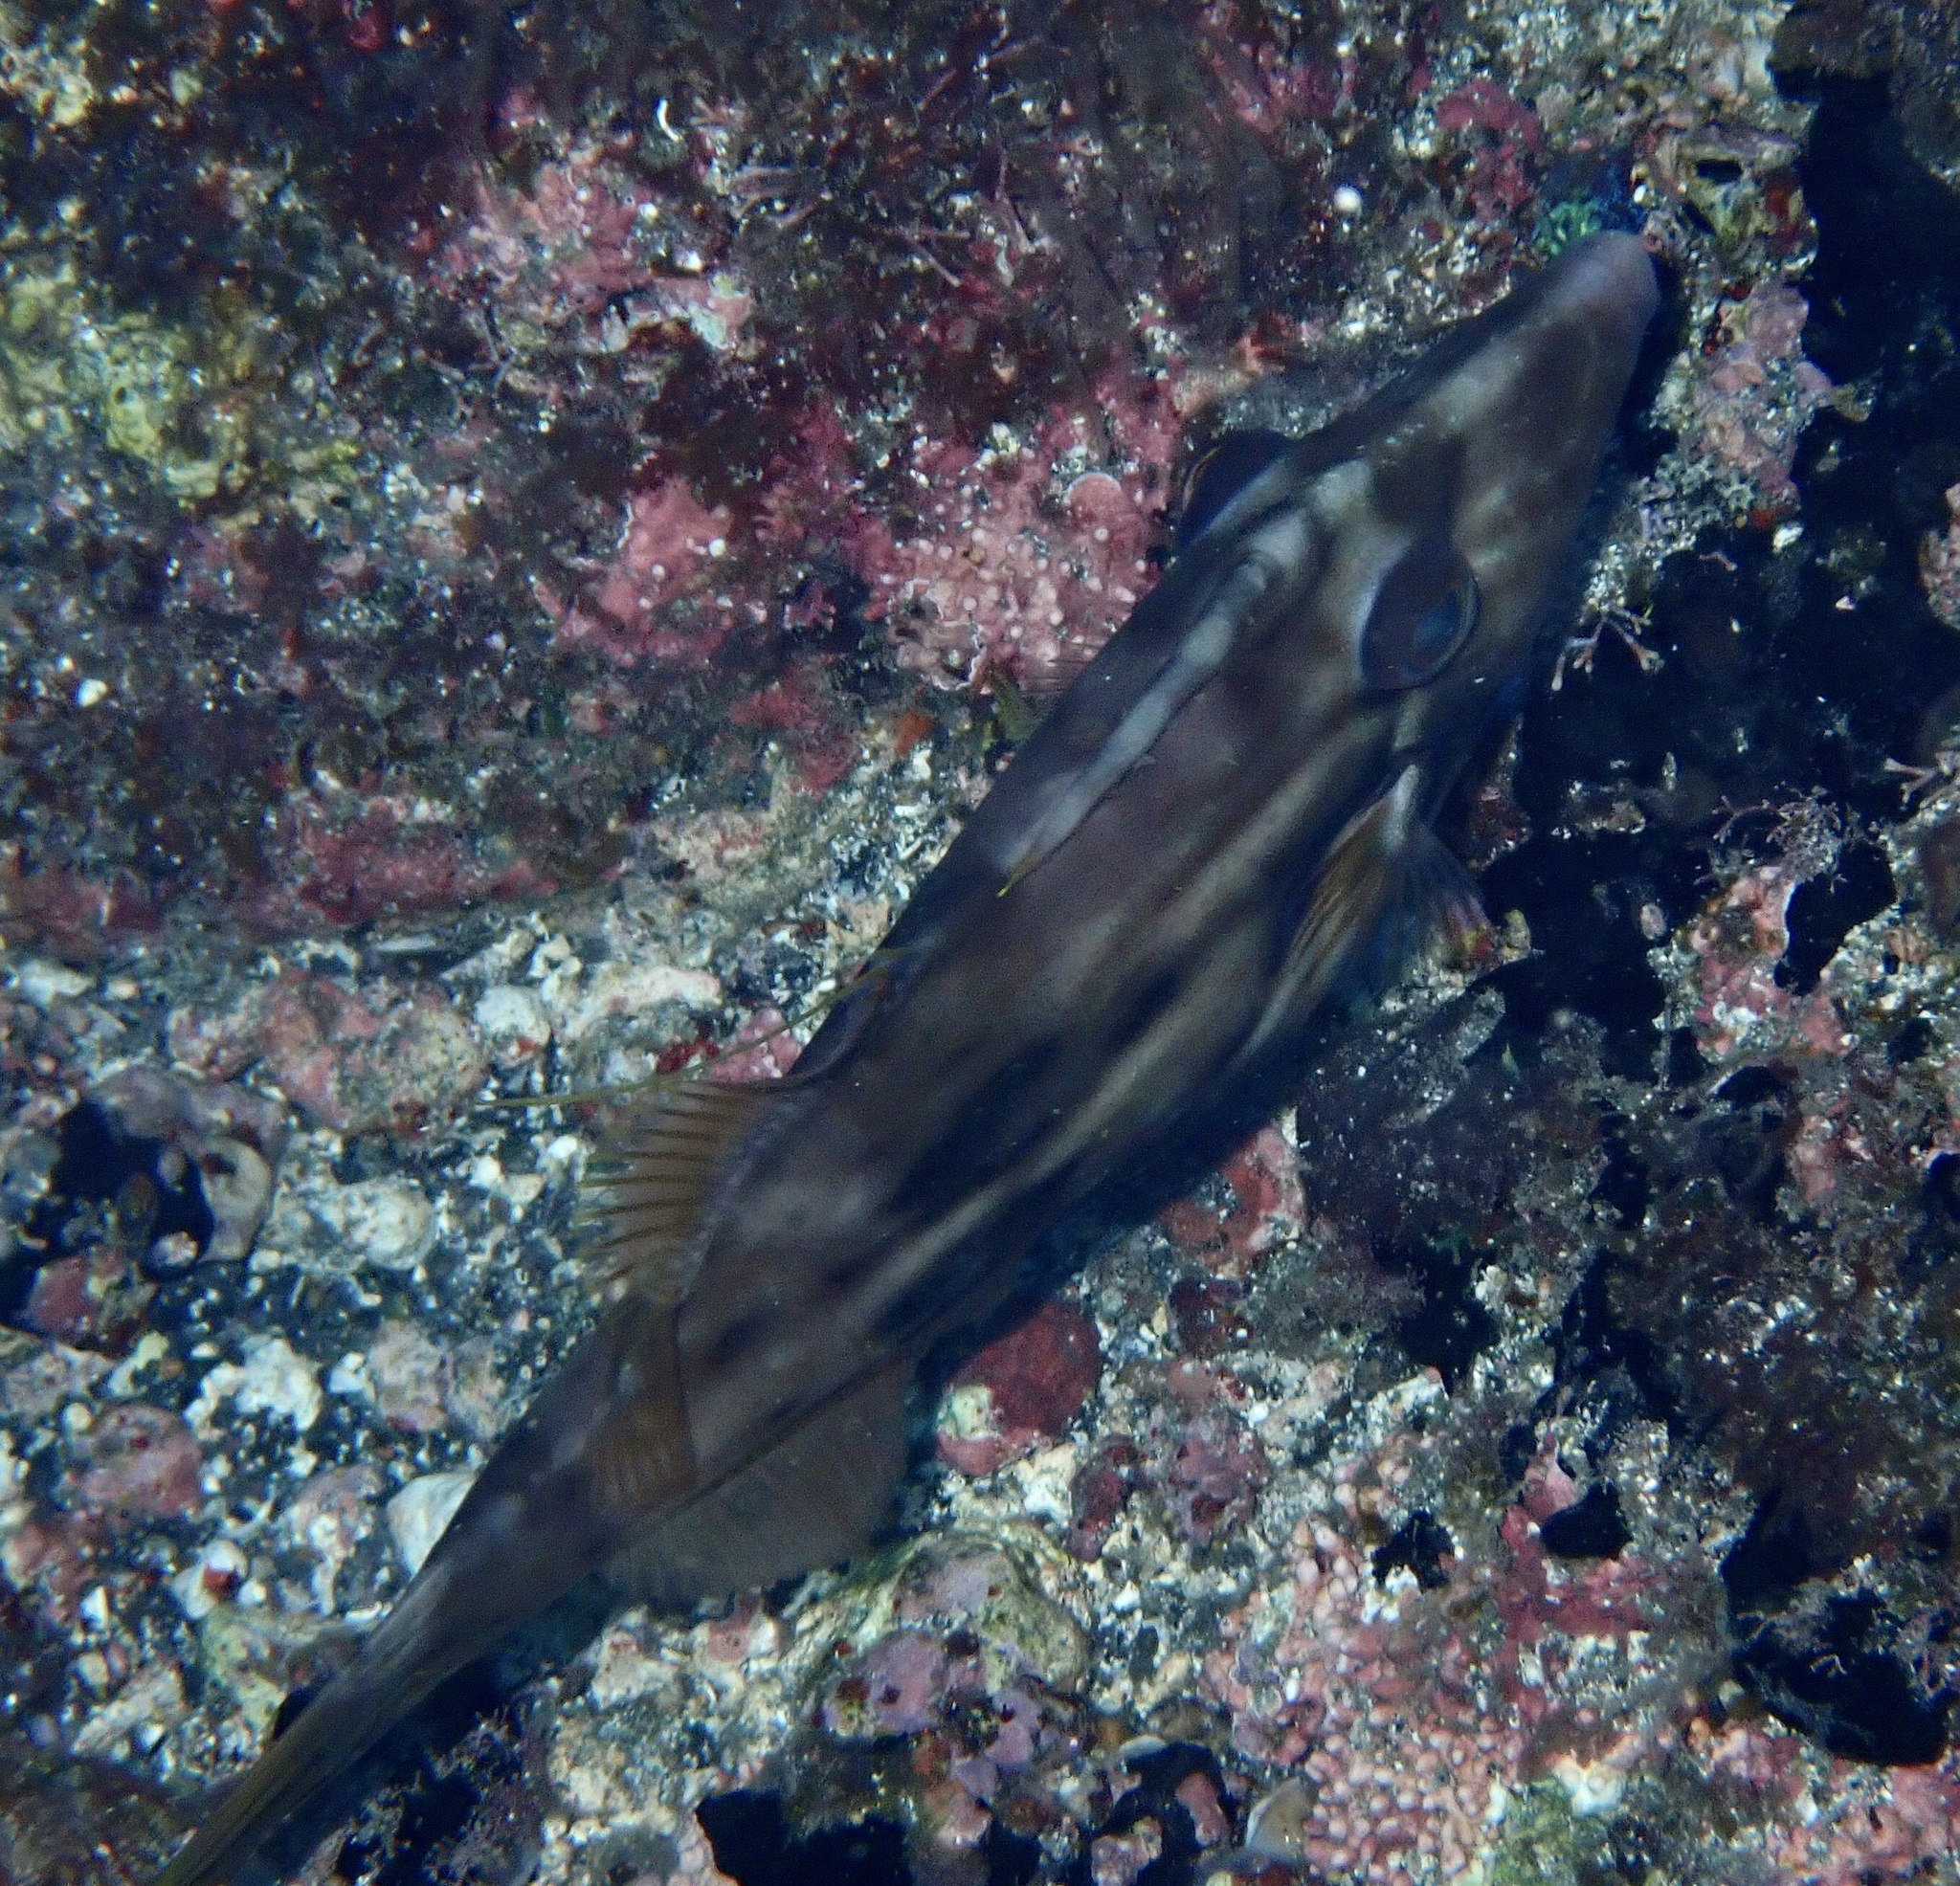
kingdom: Animalia
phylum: Chordata
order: Tetraodontiformes
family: Monacanthidae
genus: Stephanolepis
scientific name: Stephanolepis hispidus
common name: Planehead filefish
